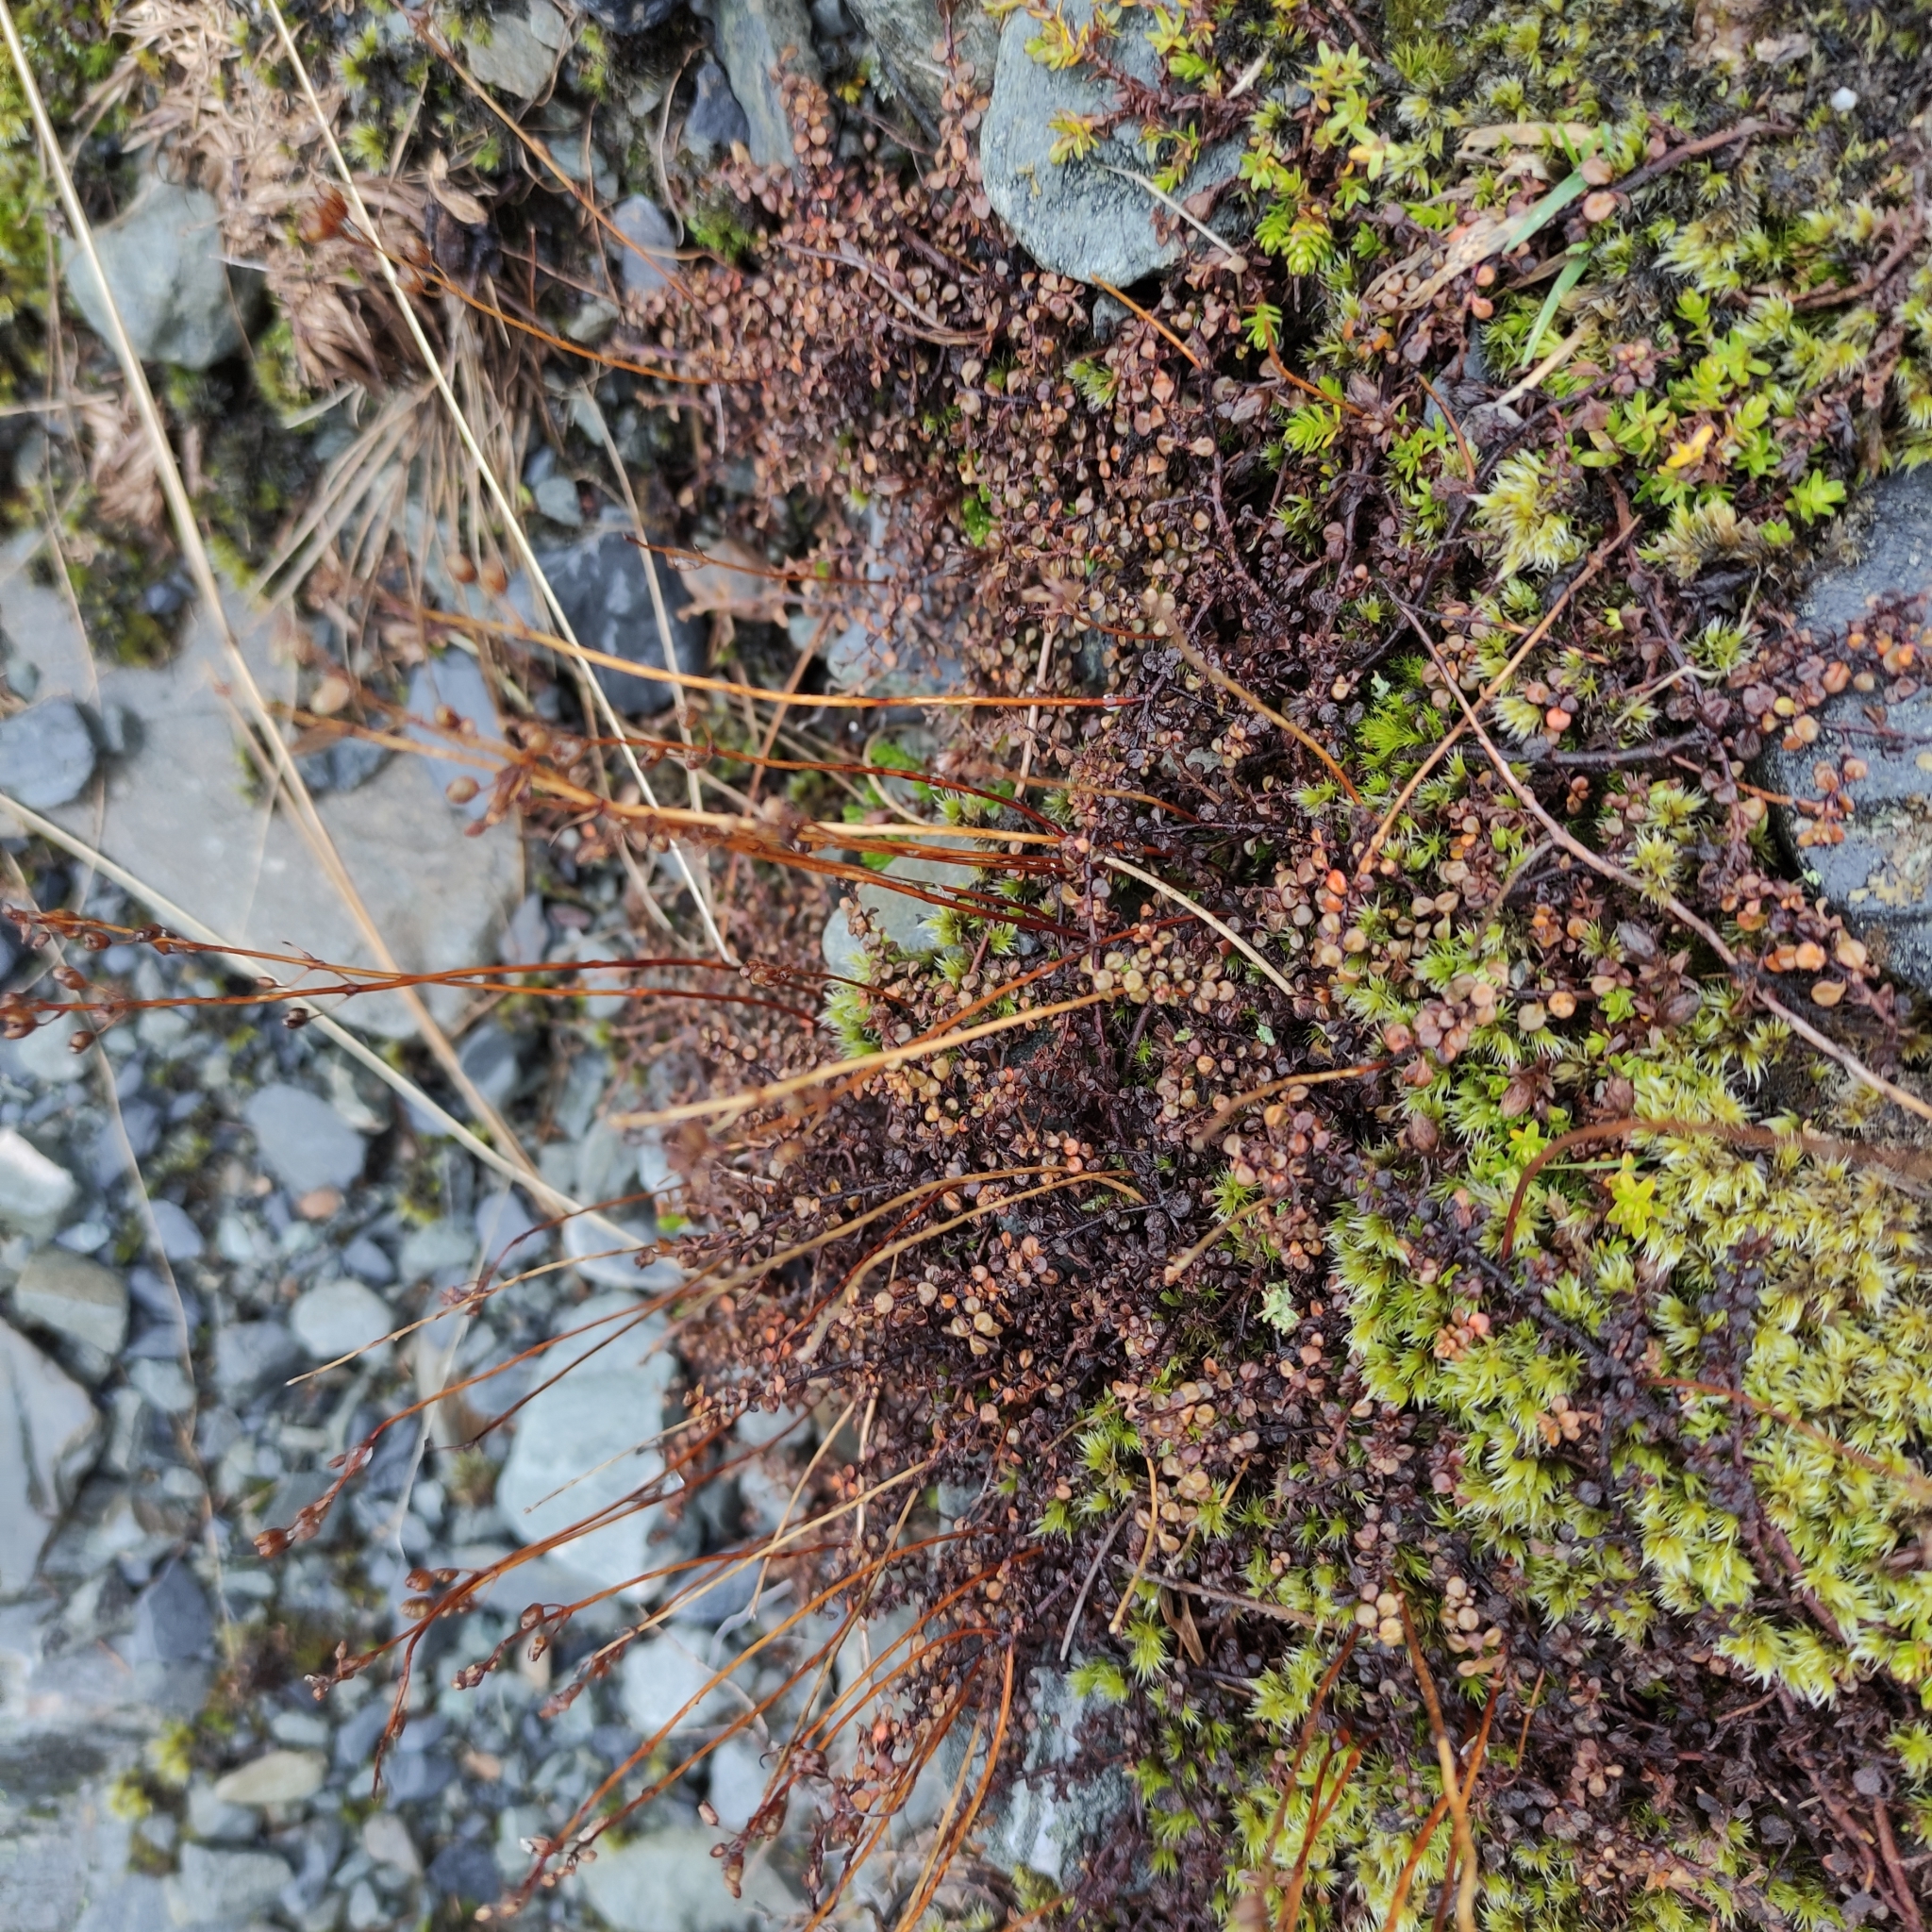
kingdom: Plantae
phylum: Tracheophyta
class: Magnoliopsida
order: Lamiales
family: Plantaginaceae
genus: Veronica
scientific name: Veronica decora
